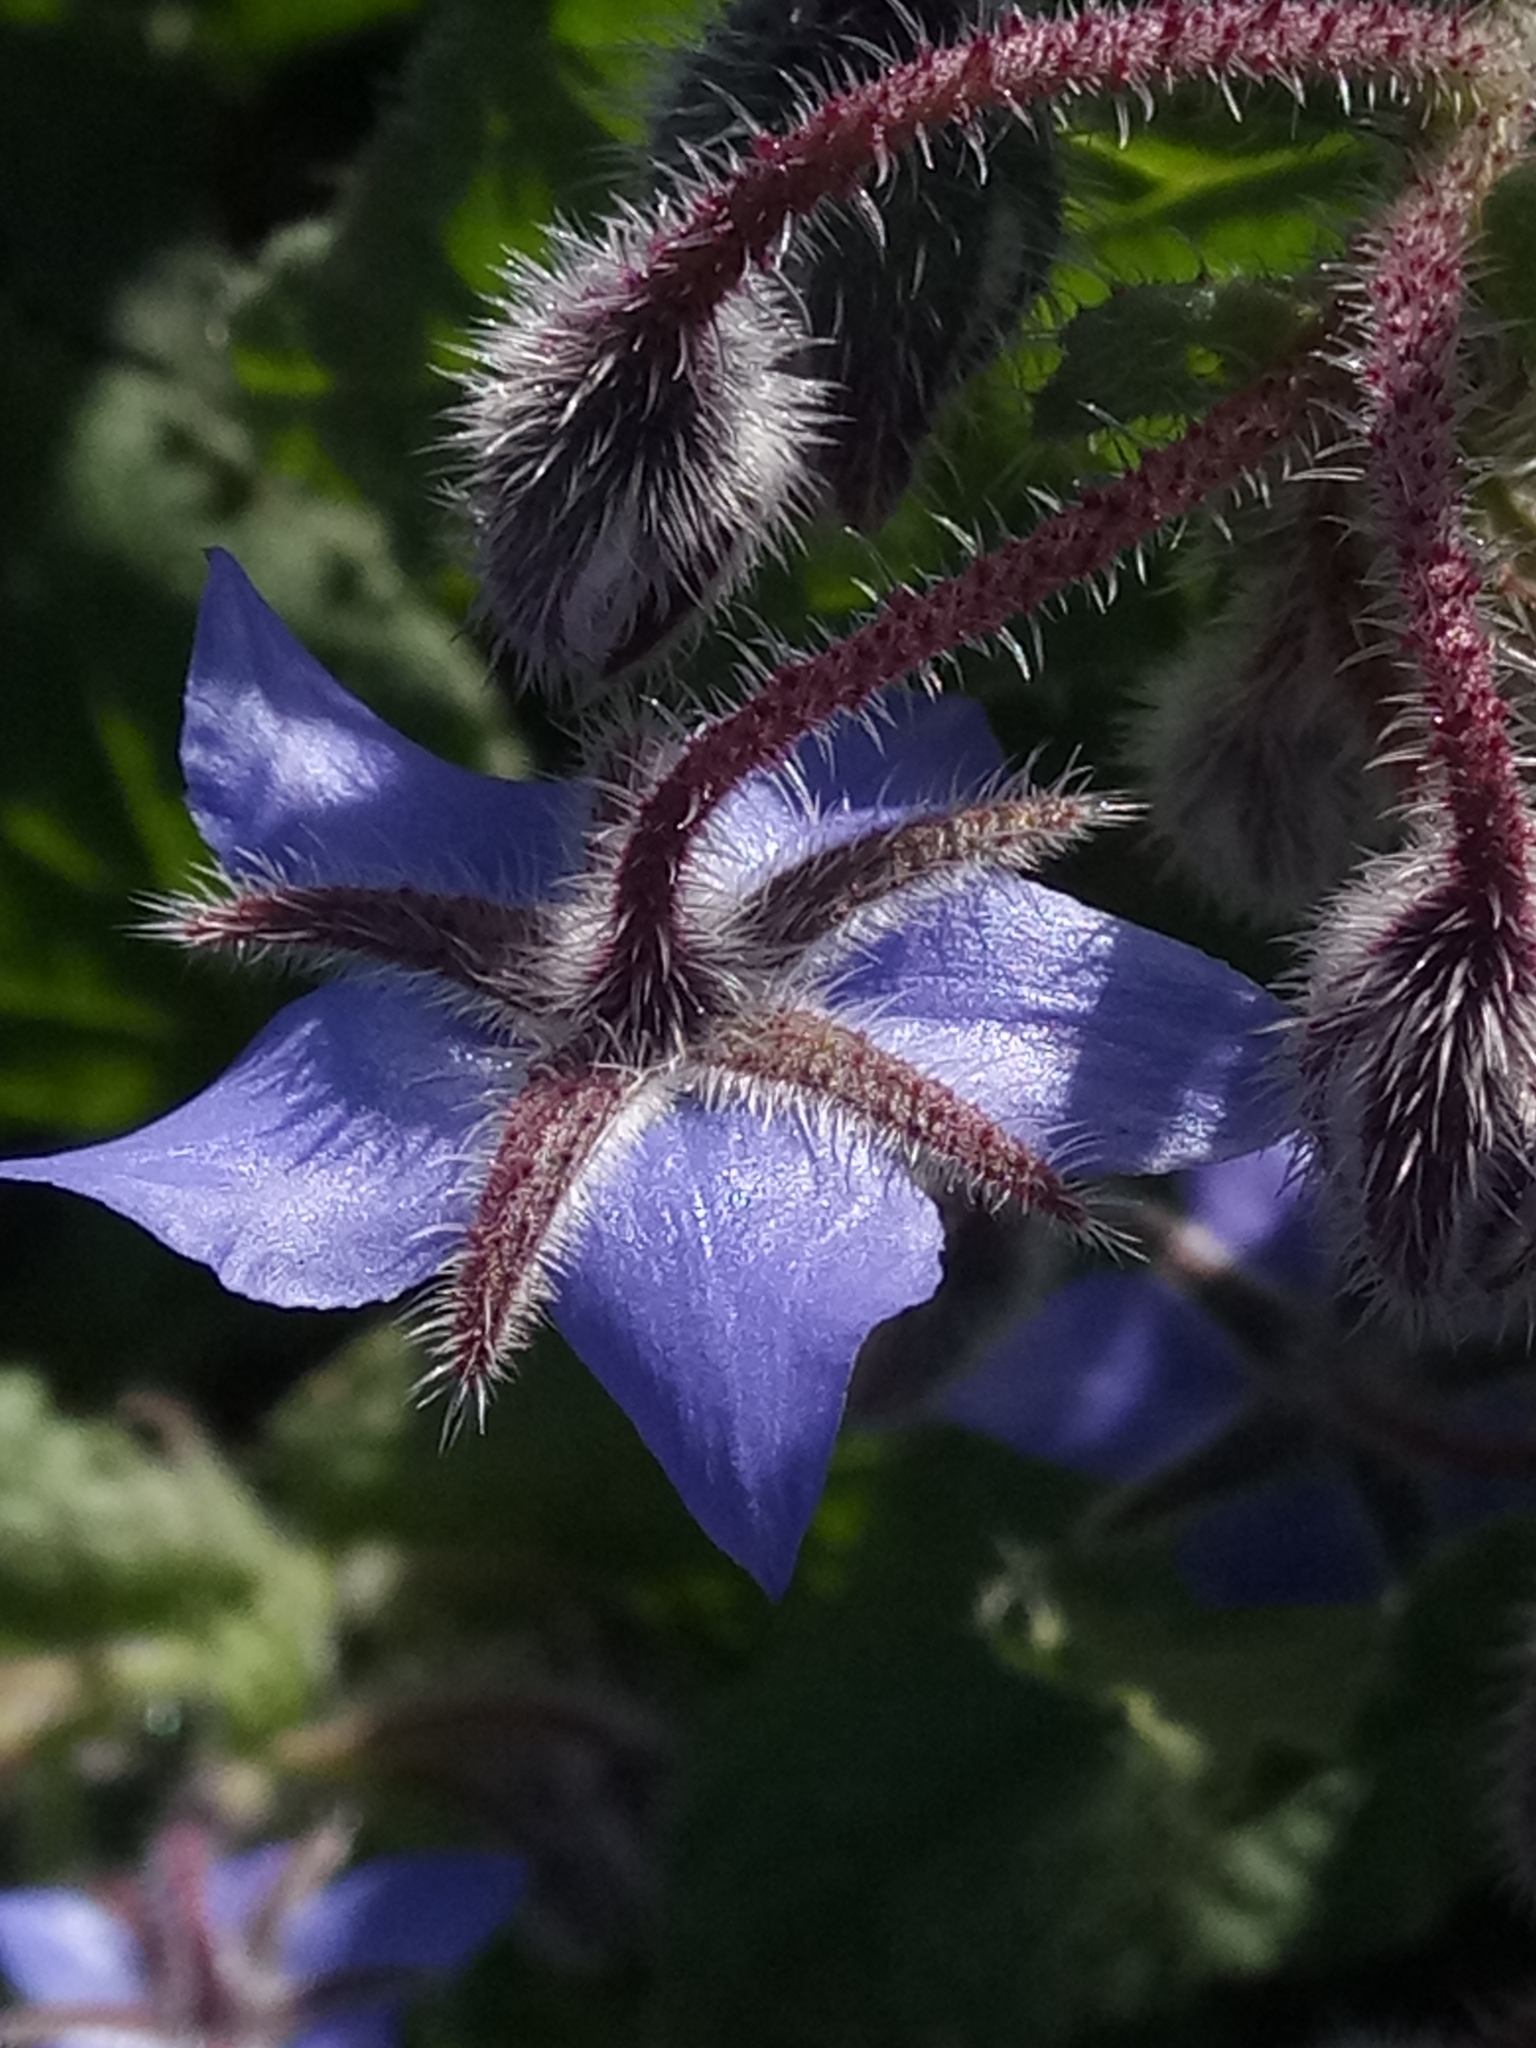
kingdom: Plantae
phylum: Tracheophyta
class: Magnoliopsida
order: Boraginales
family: Boraginaceae
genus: Borago
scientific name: Borago officinalis
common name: Borage
